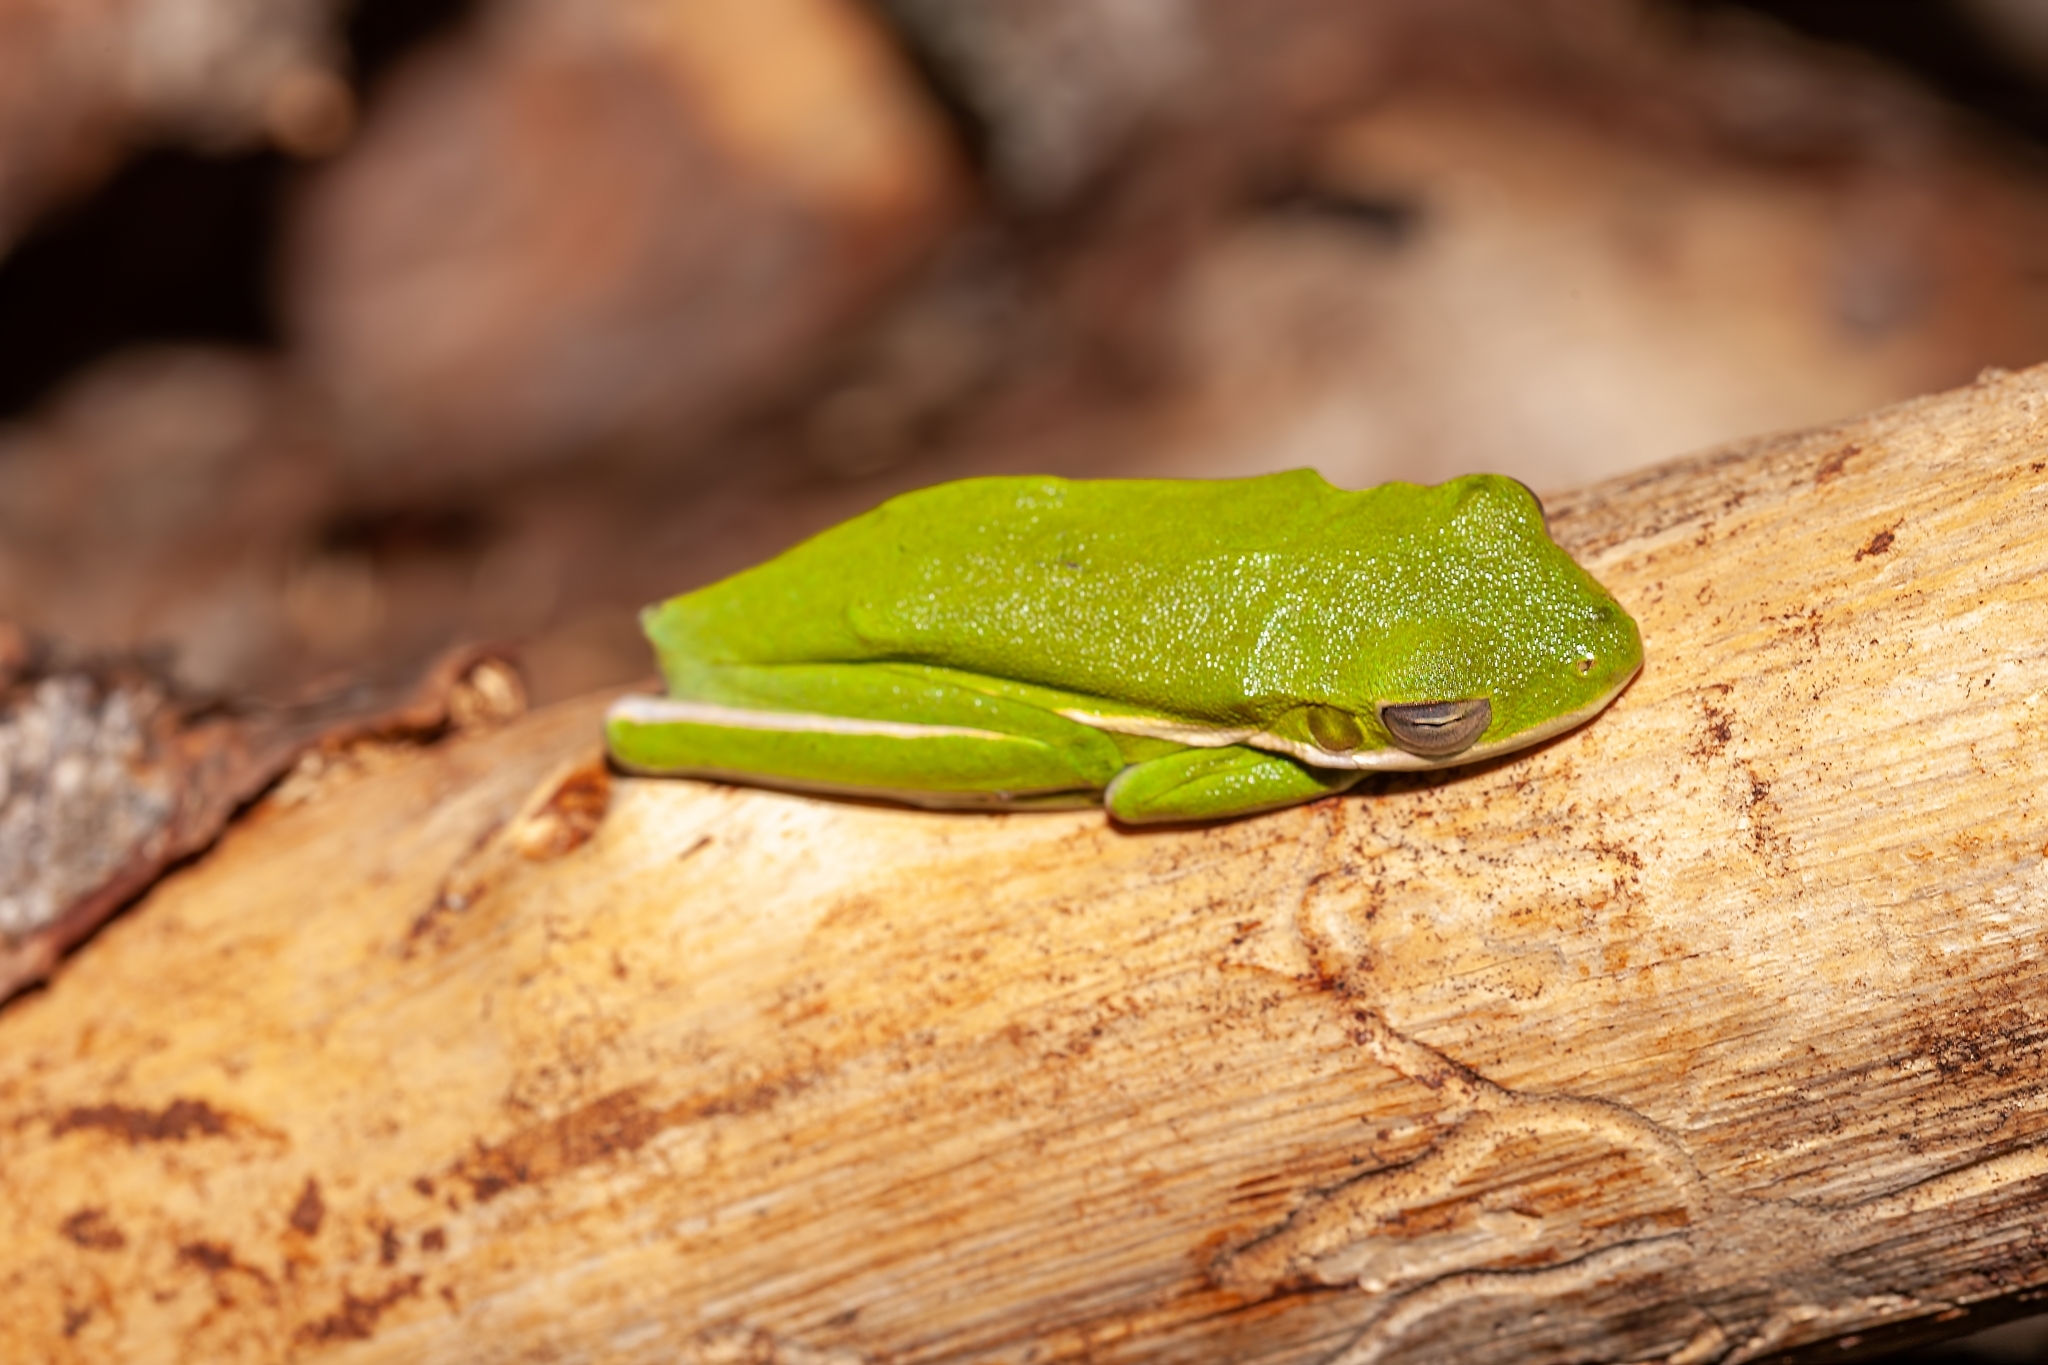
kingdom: Animalia
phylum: Chordata
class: Amphibia
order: Anura
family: Hylidae
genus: Dryophytes
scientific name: Dryophytes cinereus
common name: Green treefrog
